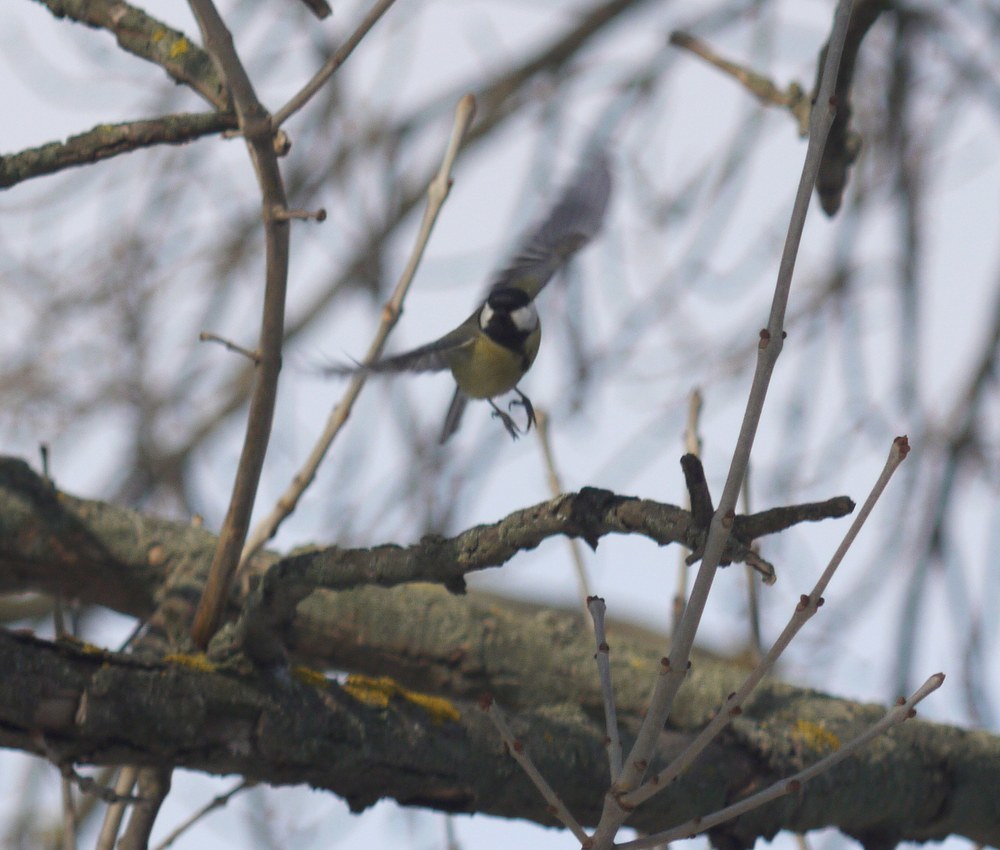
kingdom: Animalia
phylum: Chordata
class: Aves
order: Passeriformes
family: Paridae
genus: Parus
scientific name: Parus major
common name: Great tit
